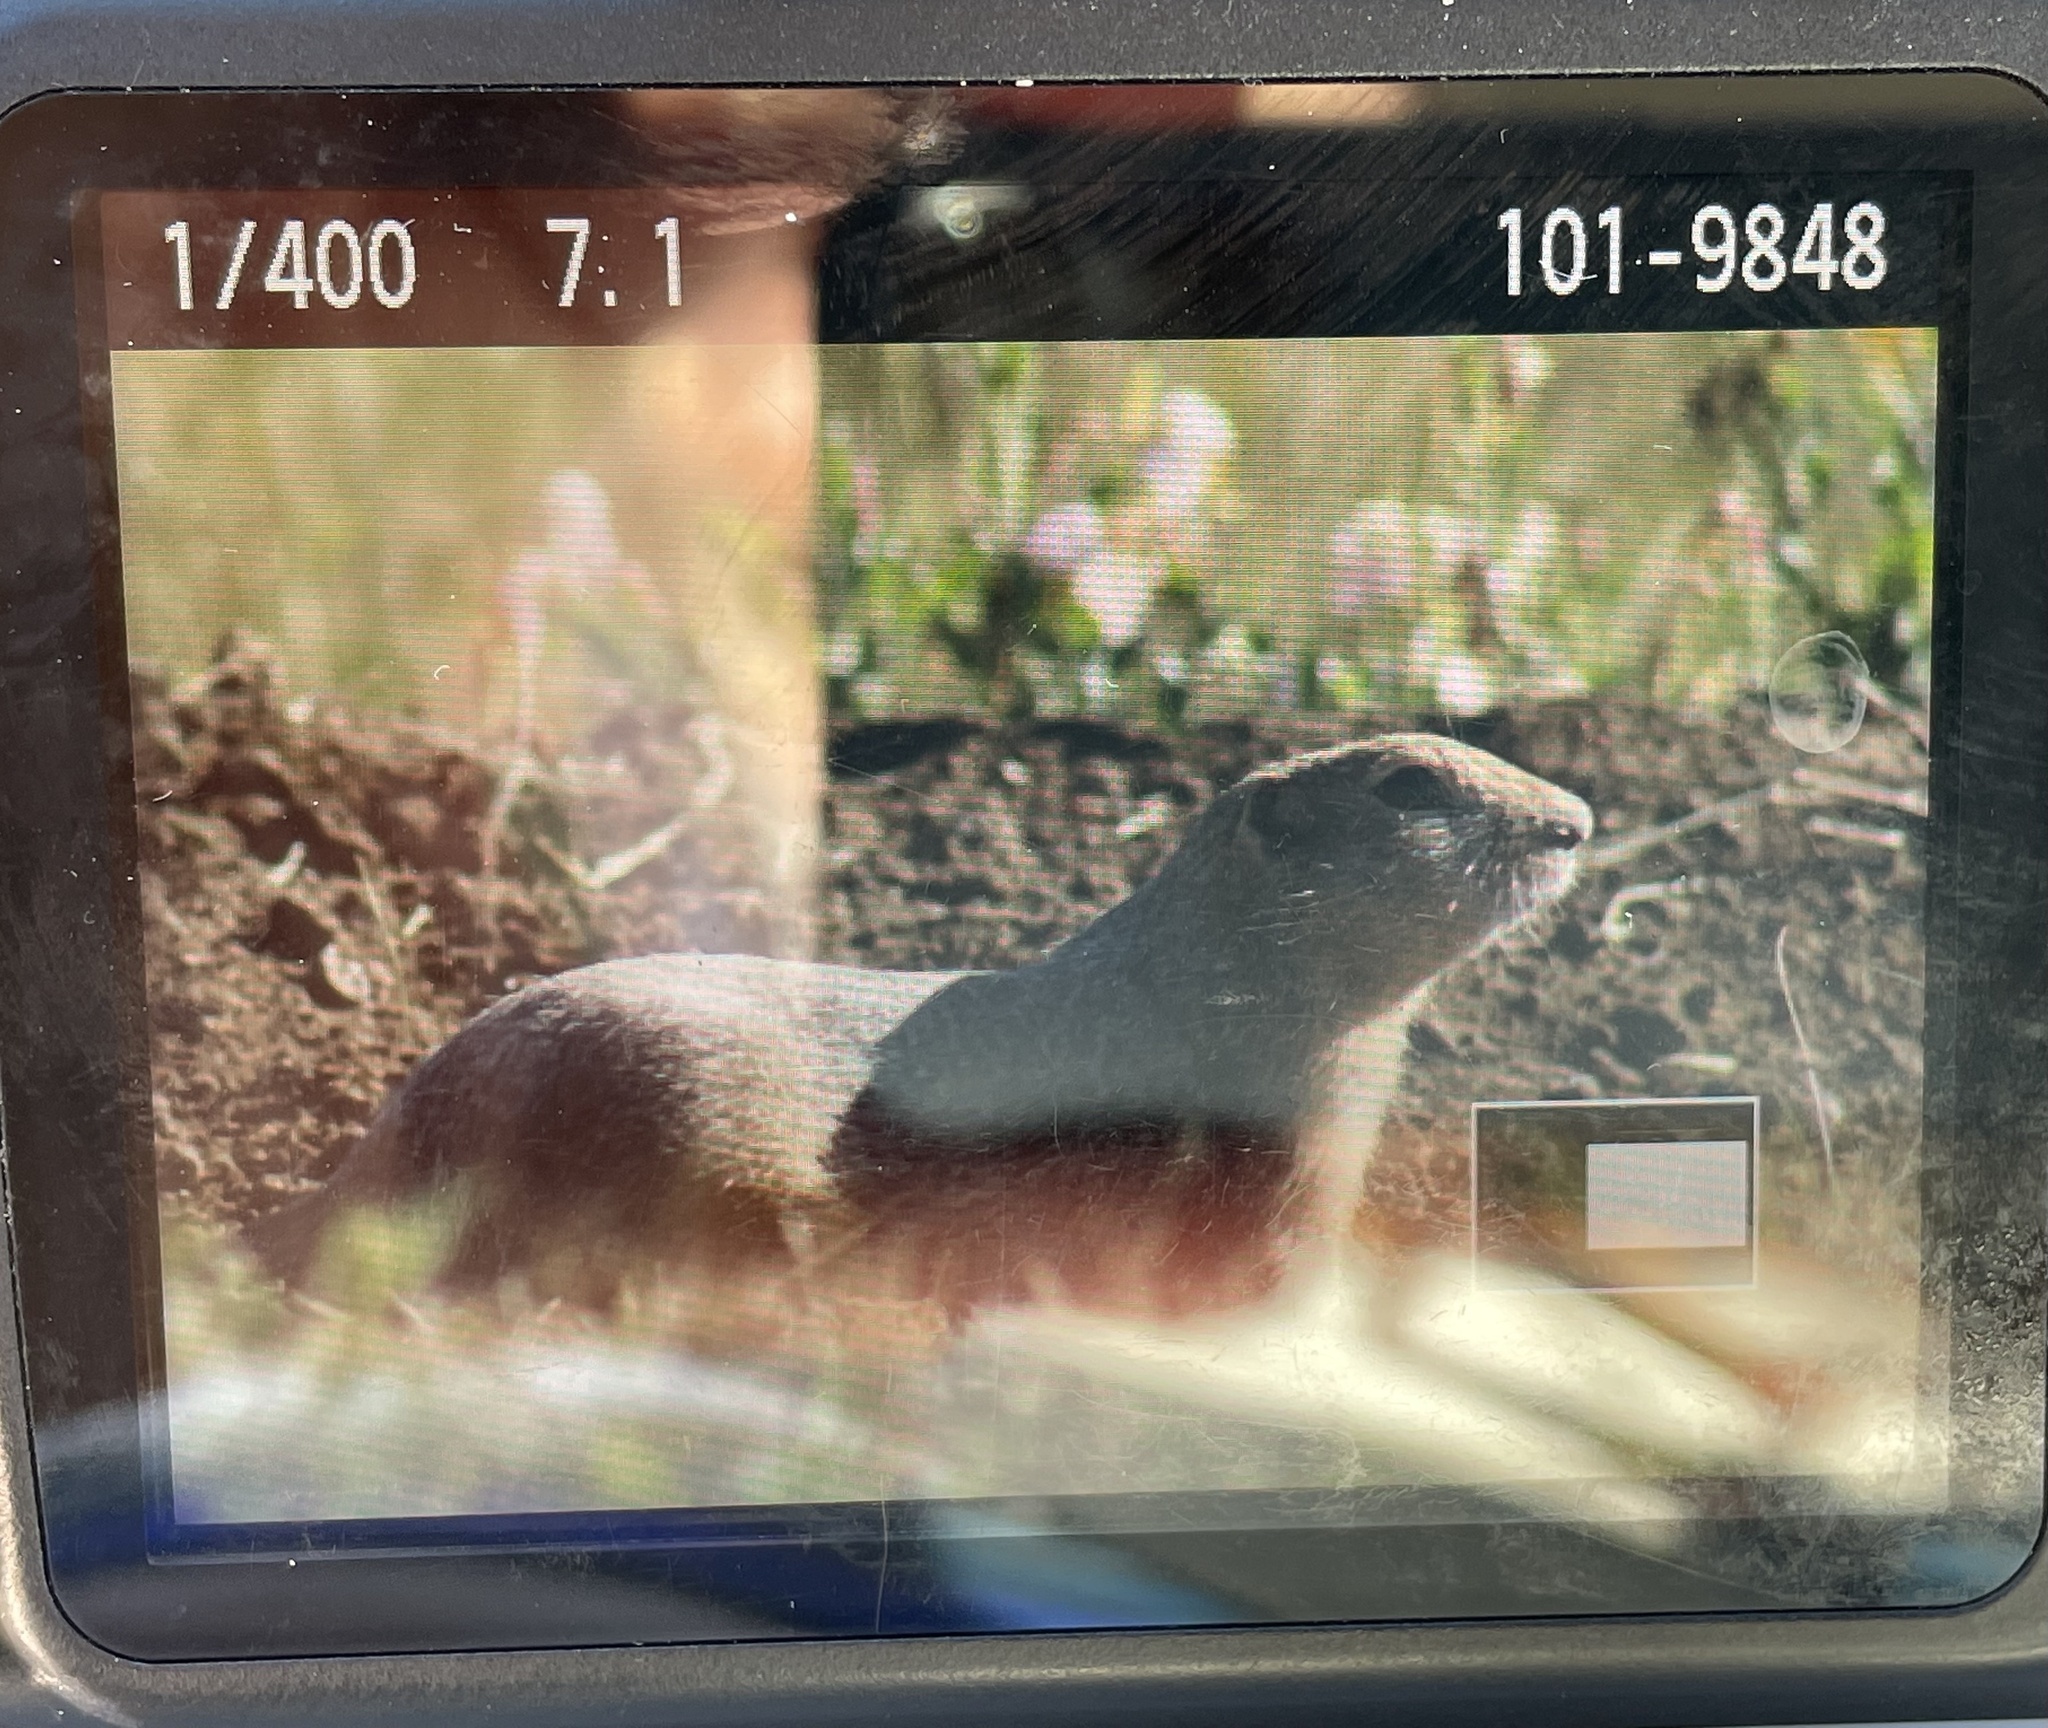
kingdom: Animalia
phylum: Chordata
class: Mammalia
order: Rodentia
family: Sciuridae
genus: Urocitellus
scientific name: Urocitellus richardsonii
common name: Richardson's ground squirrel
